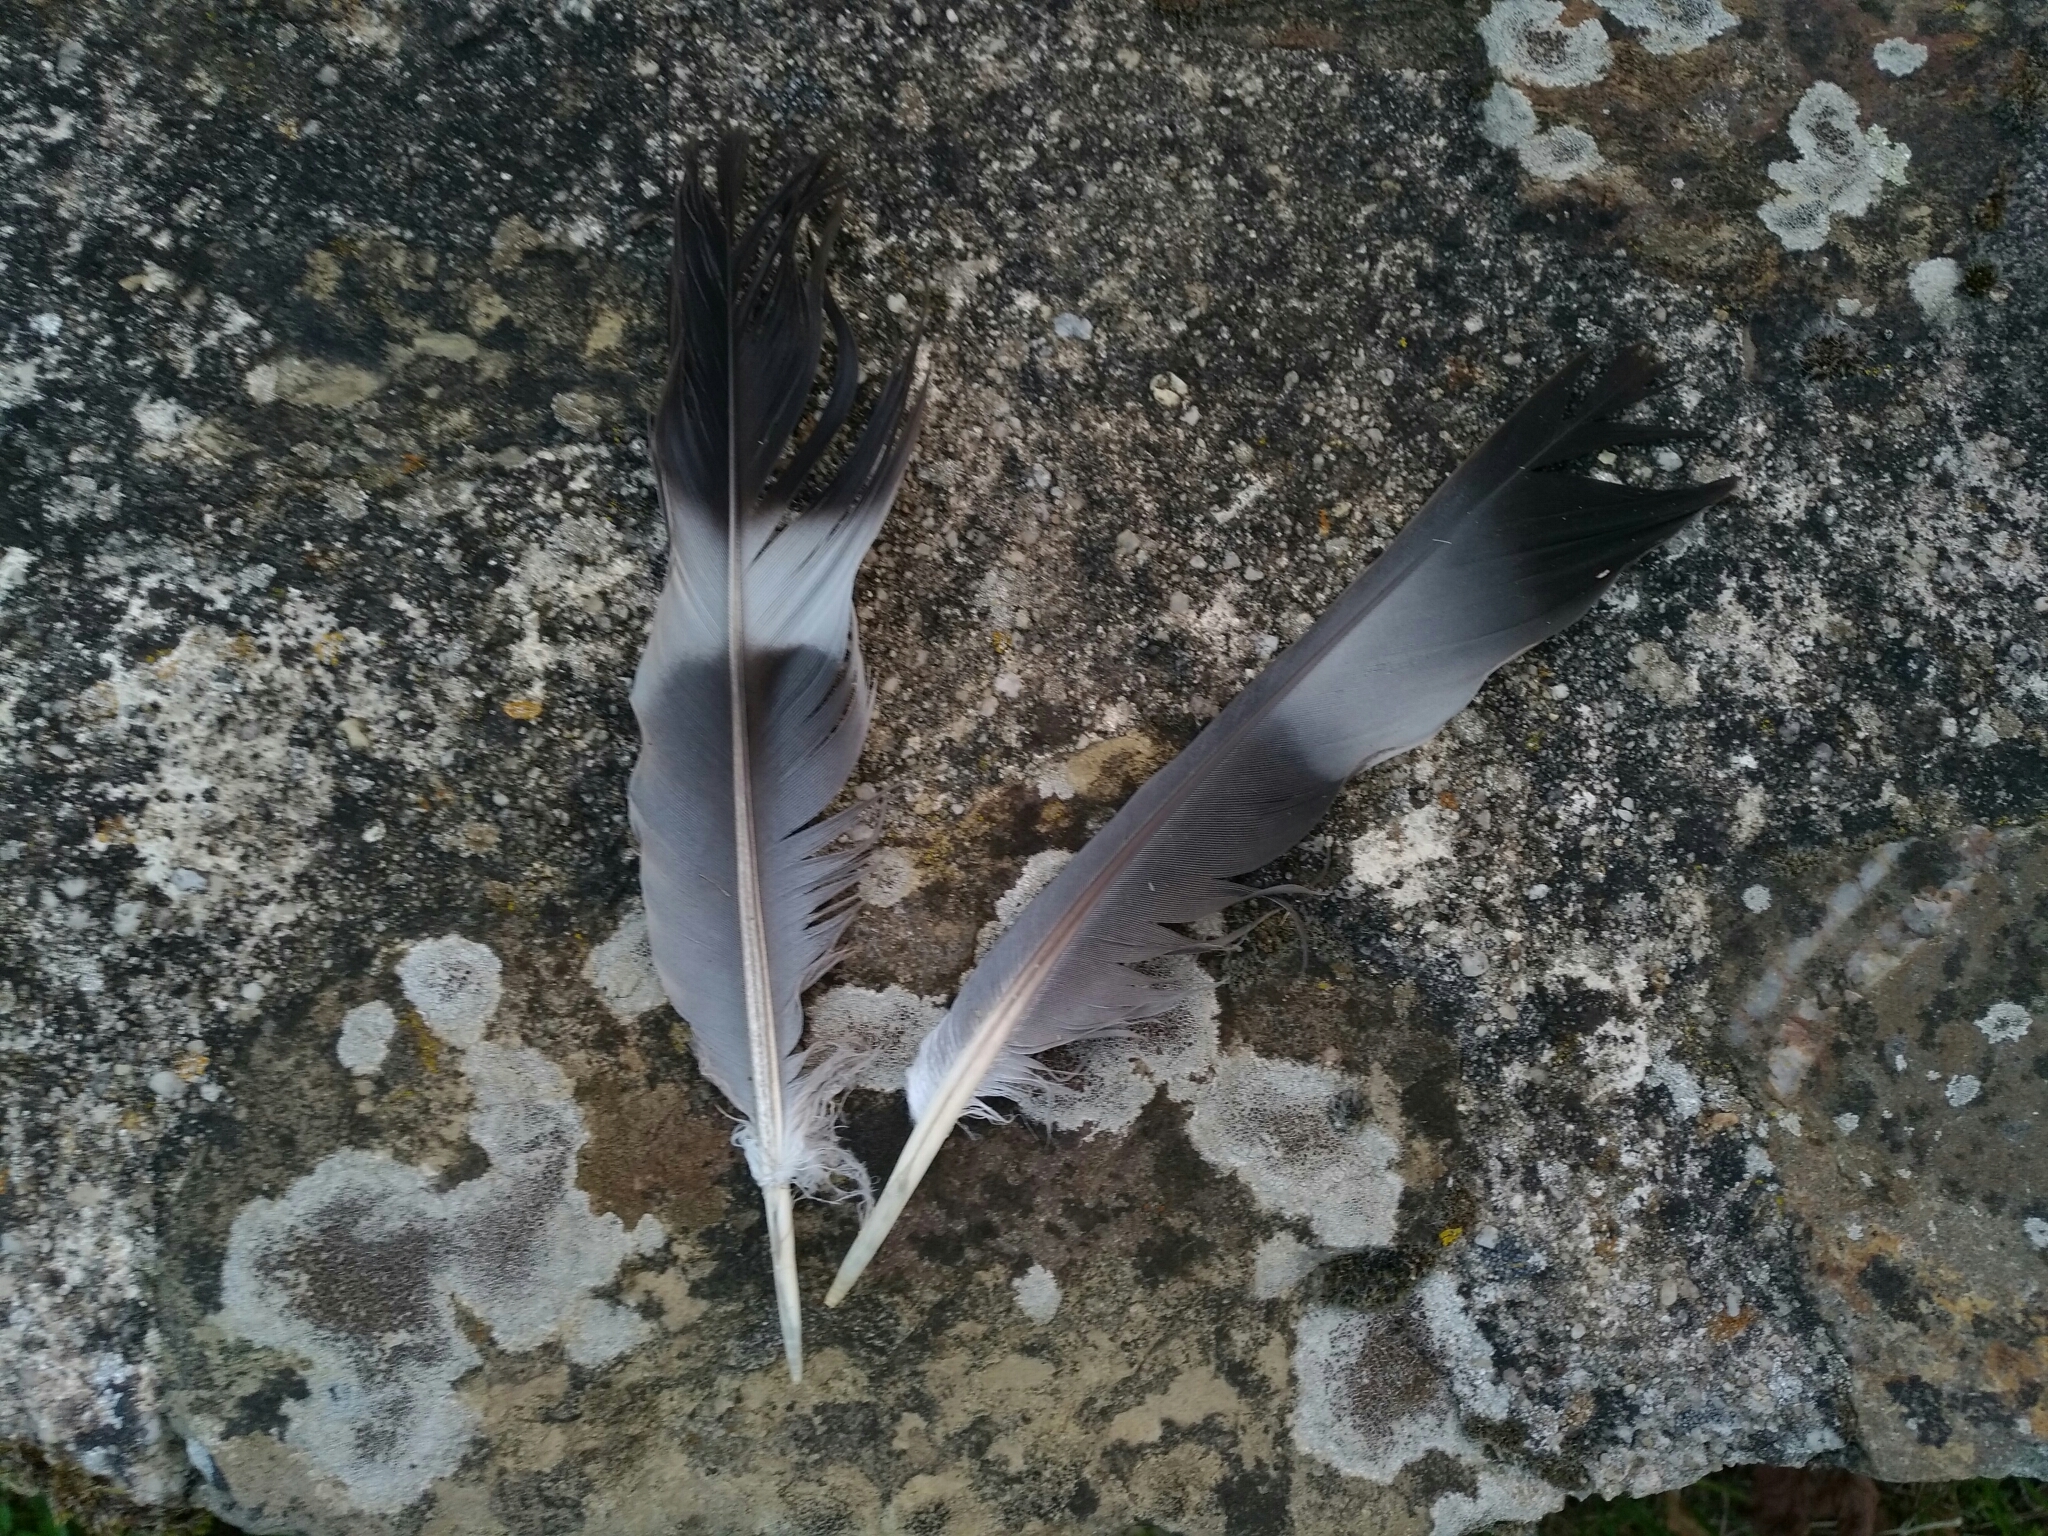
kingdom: Animalia
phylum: Chordata
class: Aves
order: Columbiformes
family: Columbidae
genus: Columba
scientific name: Columba palumbus
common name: Common wood pigeon
